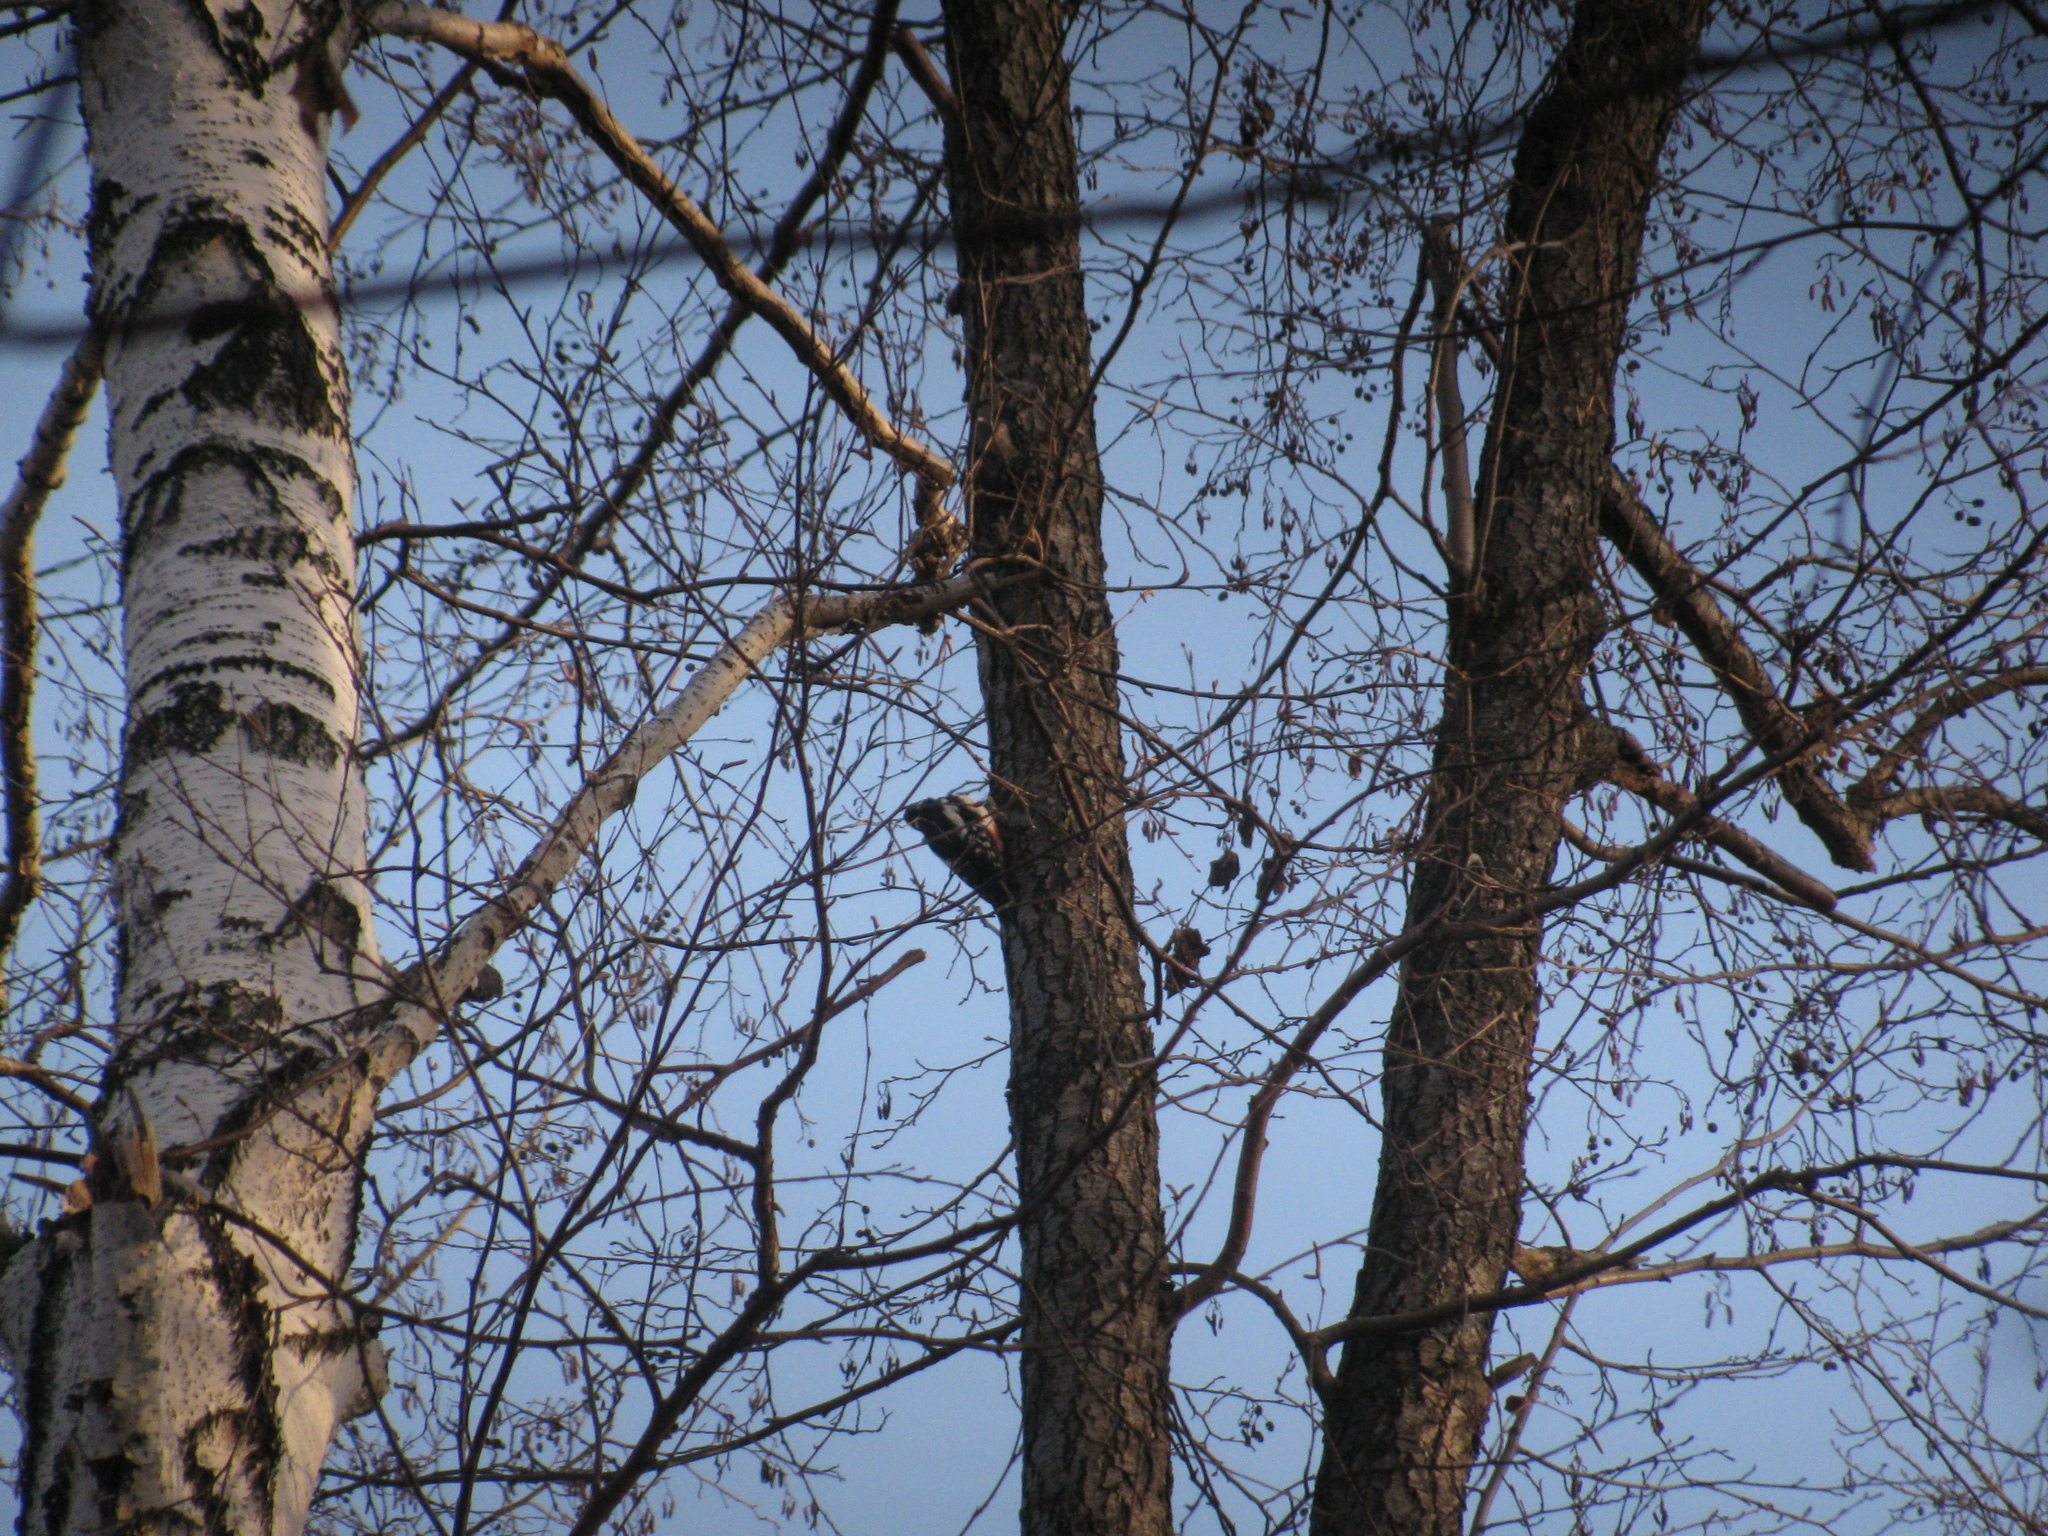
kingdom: Animalia
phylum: Chordata
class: Aves
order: Piciformes
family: Picidae
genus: Dendrocopos
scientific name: Dendrocopos major
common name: Great spotted woodpecker
